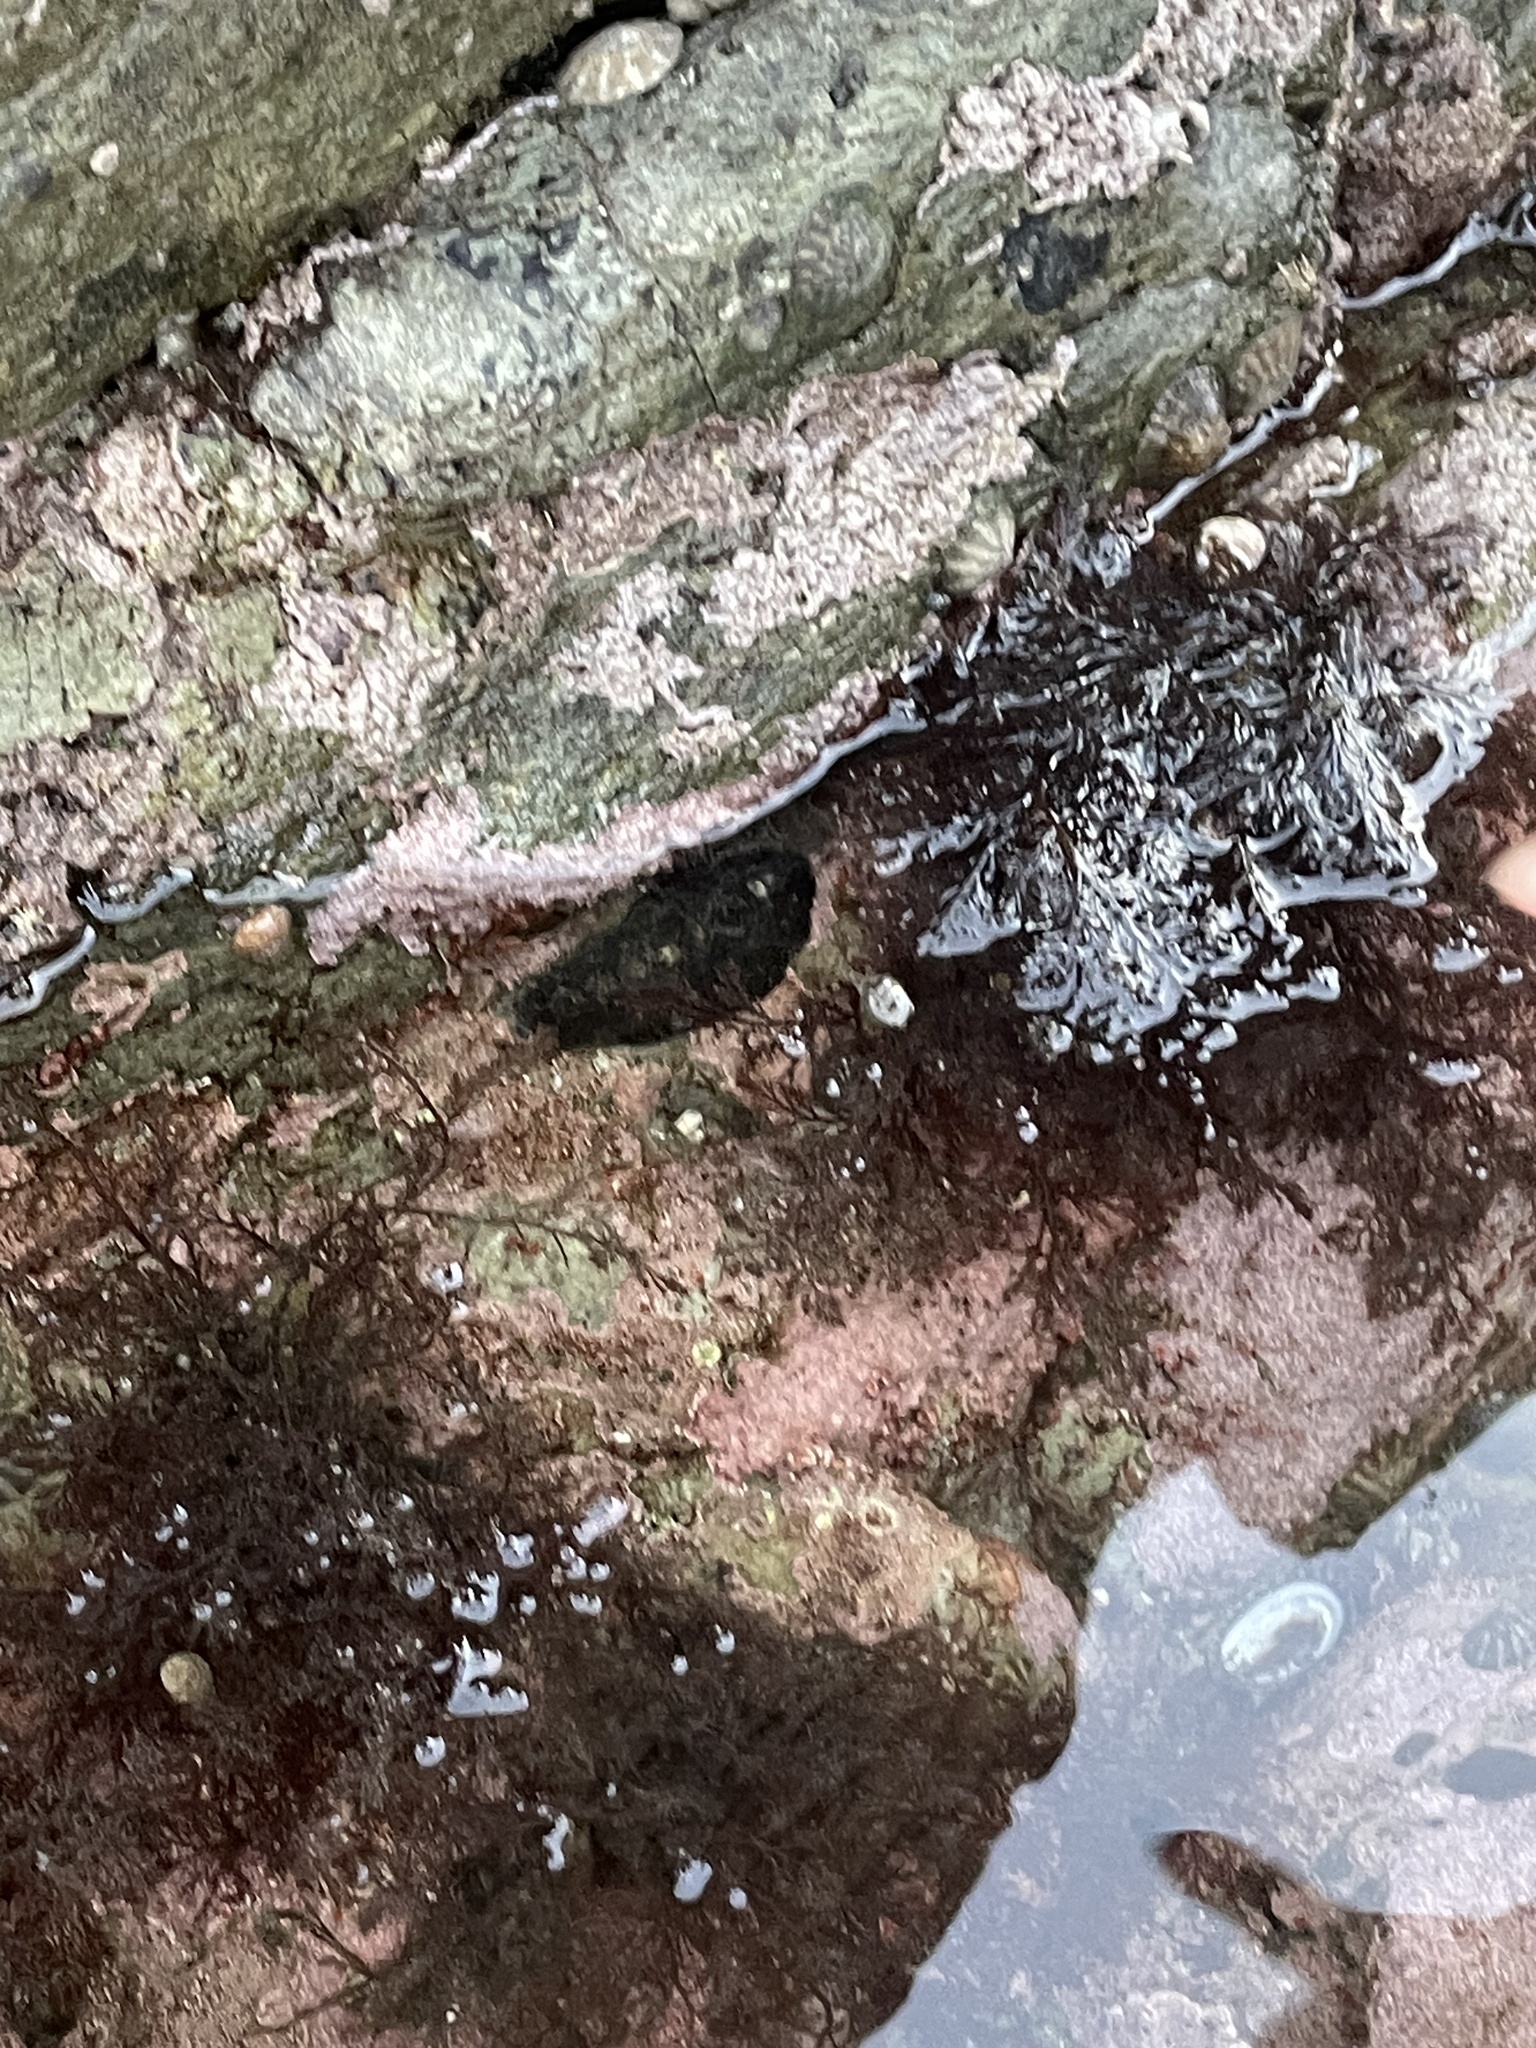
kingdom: Animalia
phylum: Mollusca
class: Polyplacophora
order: Chitonida
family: Mopaliidae
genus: Katharina
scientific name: Katharina tunicata
